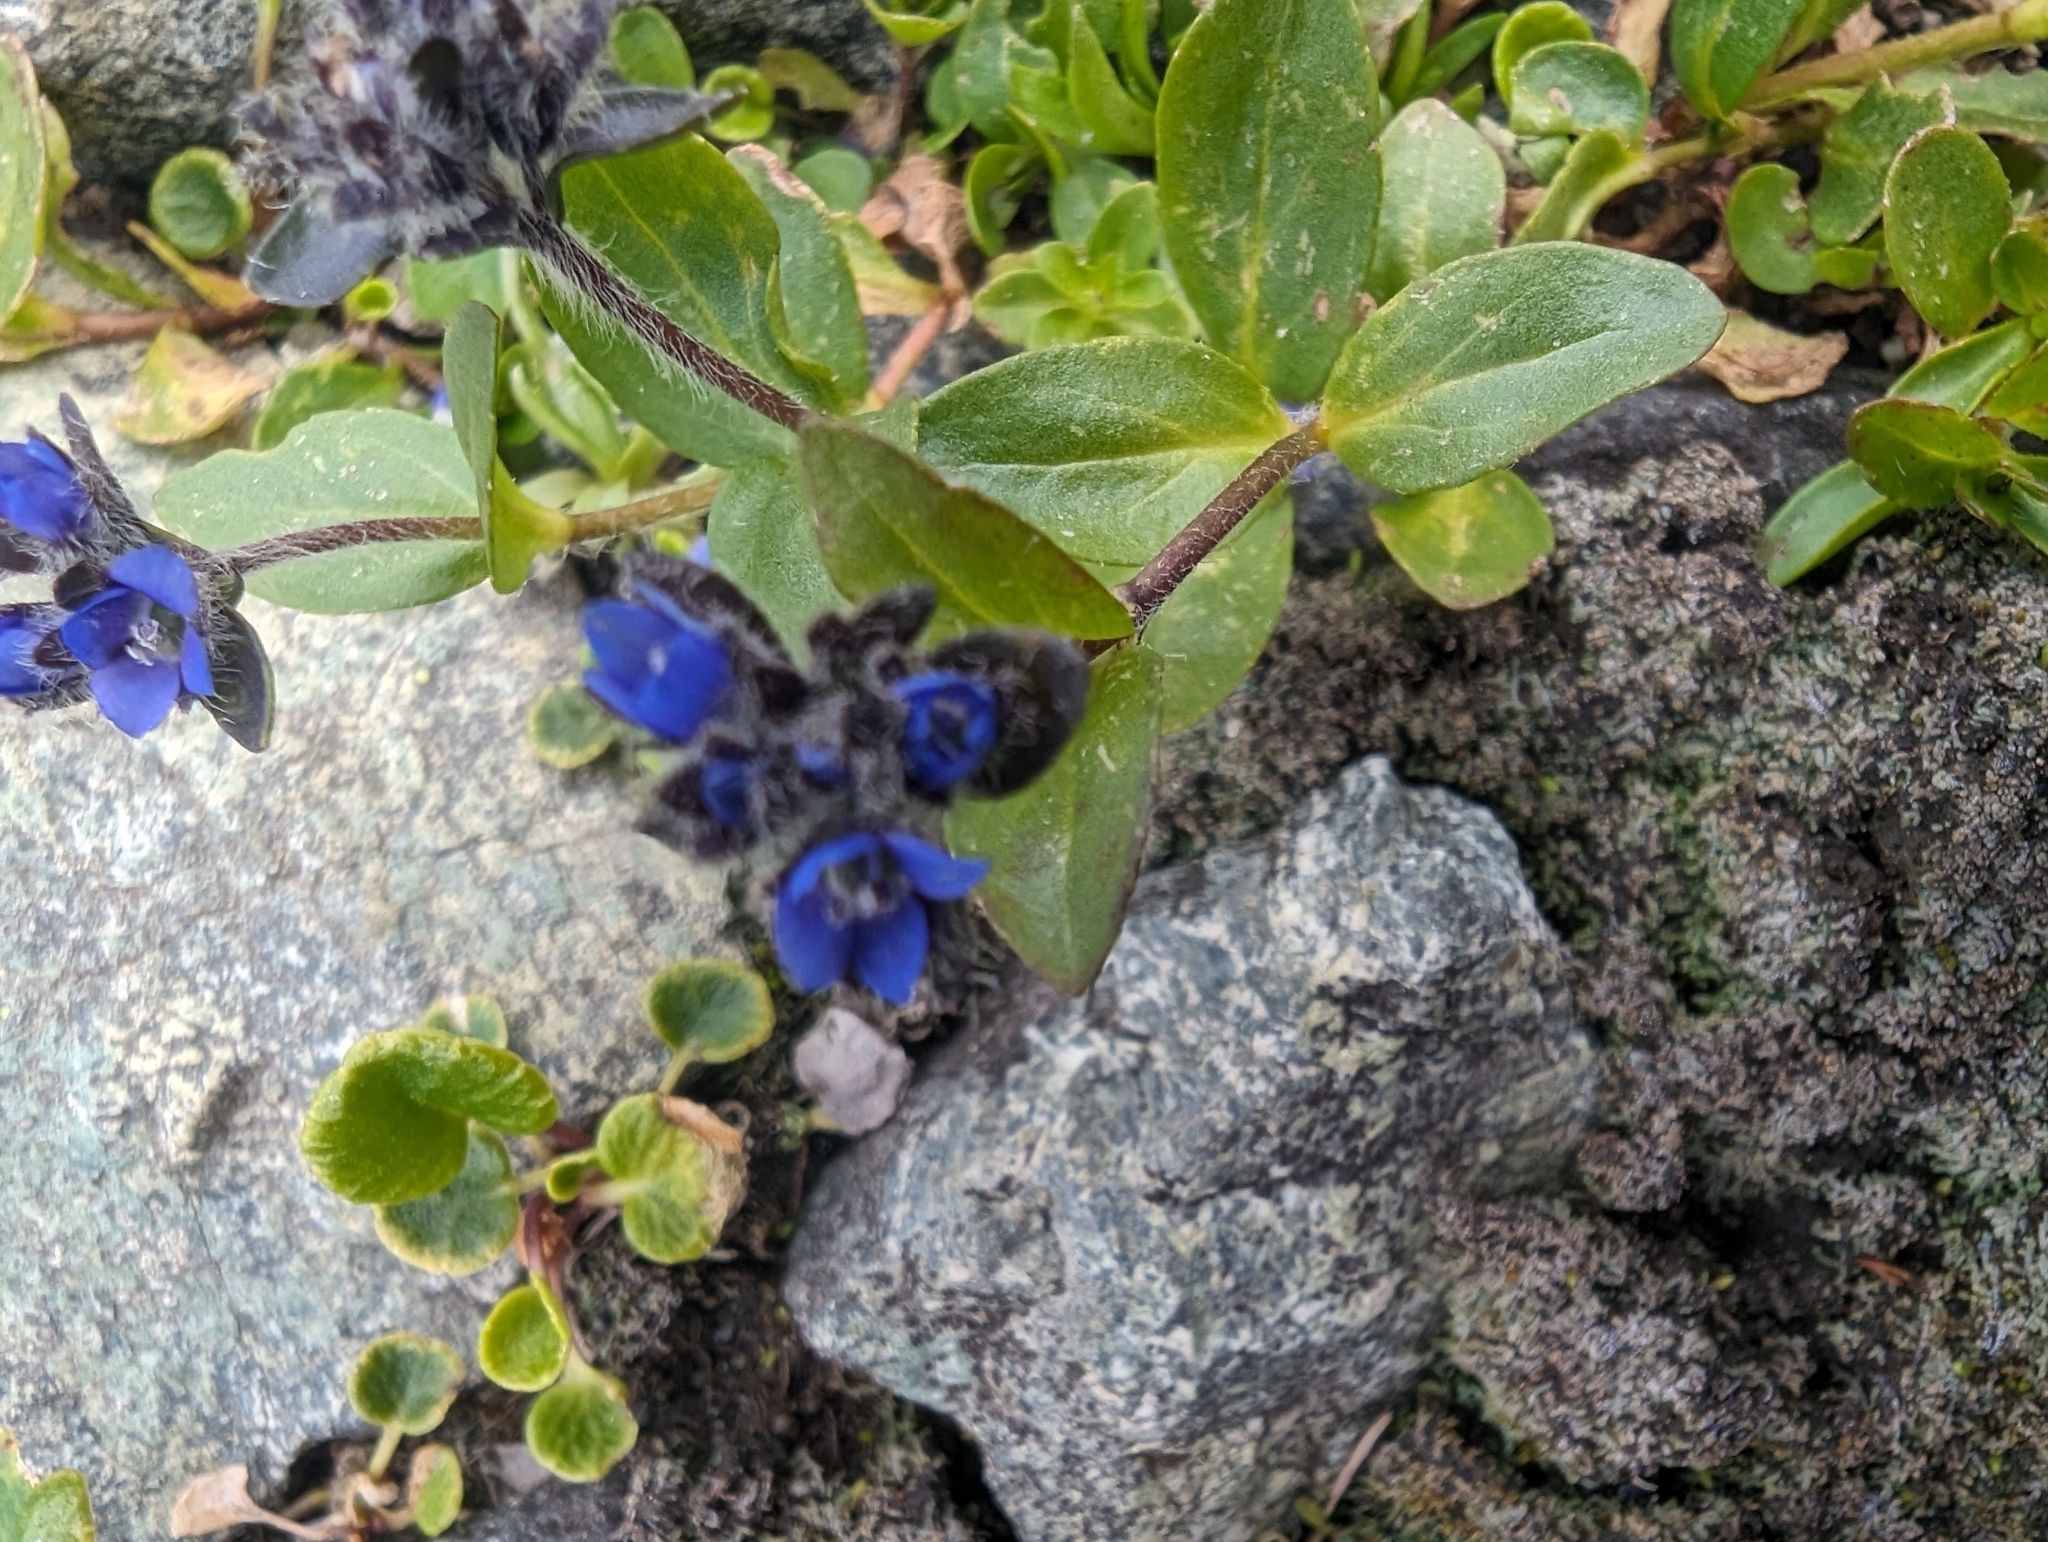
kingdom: Plantae
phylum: Tracheophyta
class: Magnoliopsida
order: Lamiales
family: Plantaginaceae
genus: Veronica
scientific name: Veronica alpina
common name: Alpine speedwell
